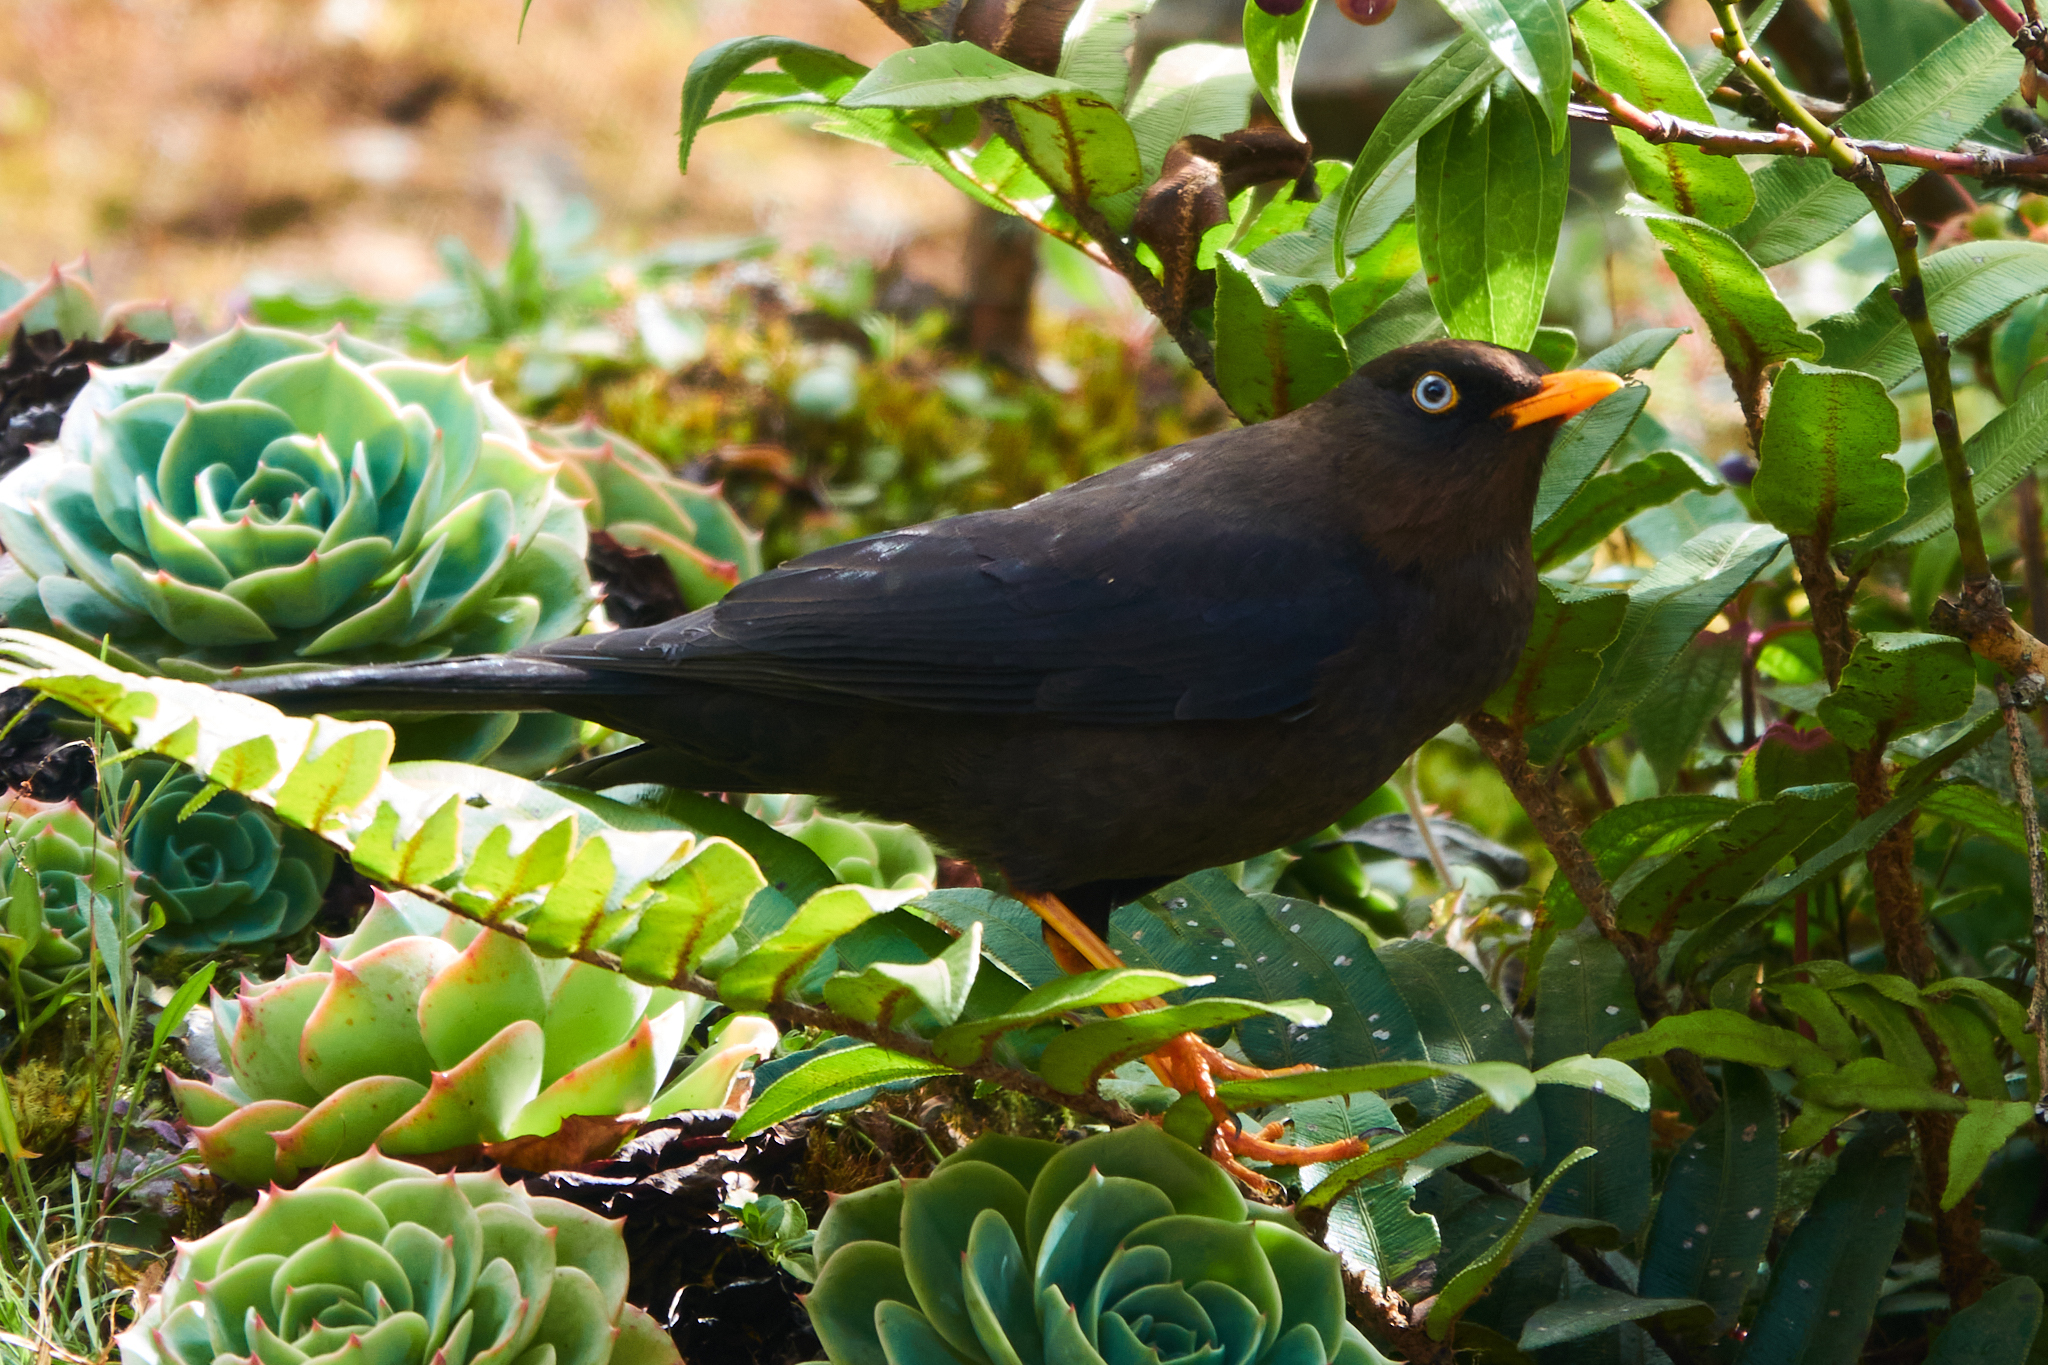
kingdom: Animalia
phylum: Chordata
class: Aves
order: Passeriformes
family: Turdidae
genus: Turdus
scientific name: Turdus nigrescens
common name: Sooty thrush
